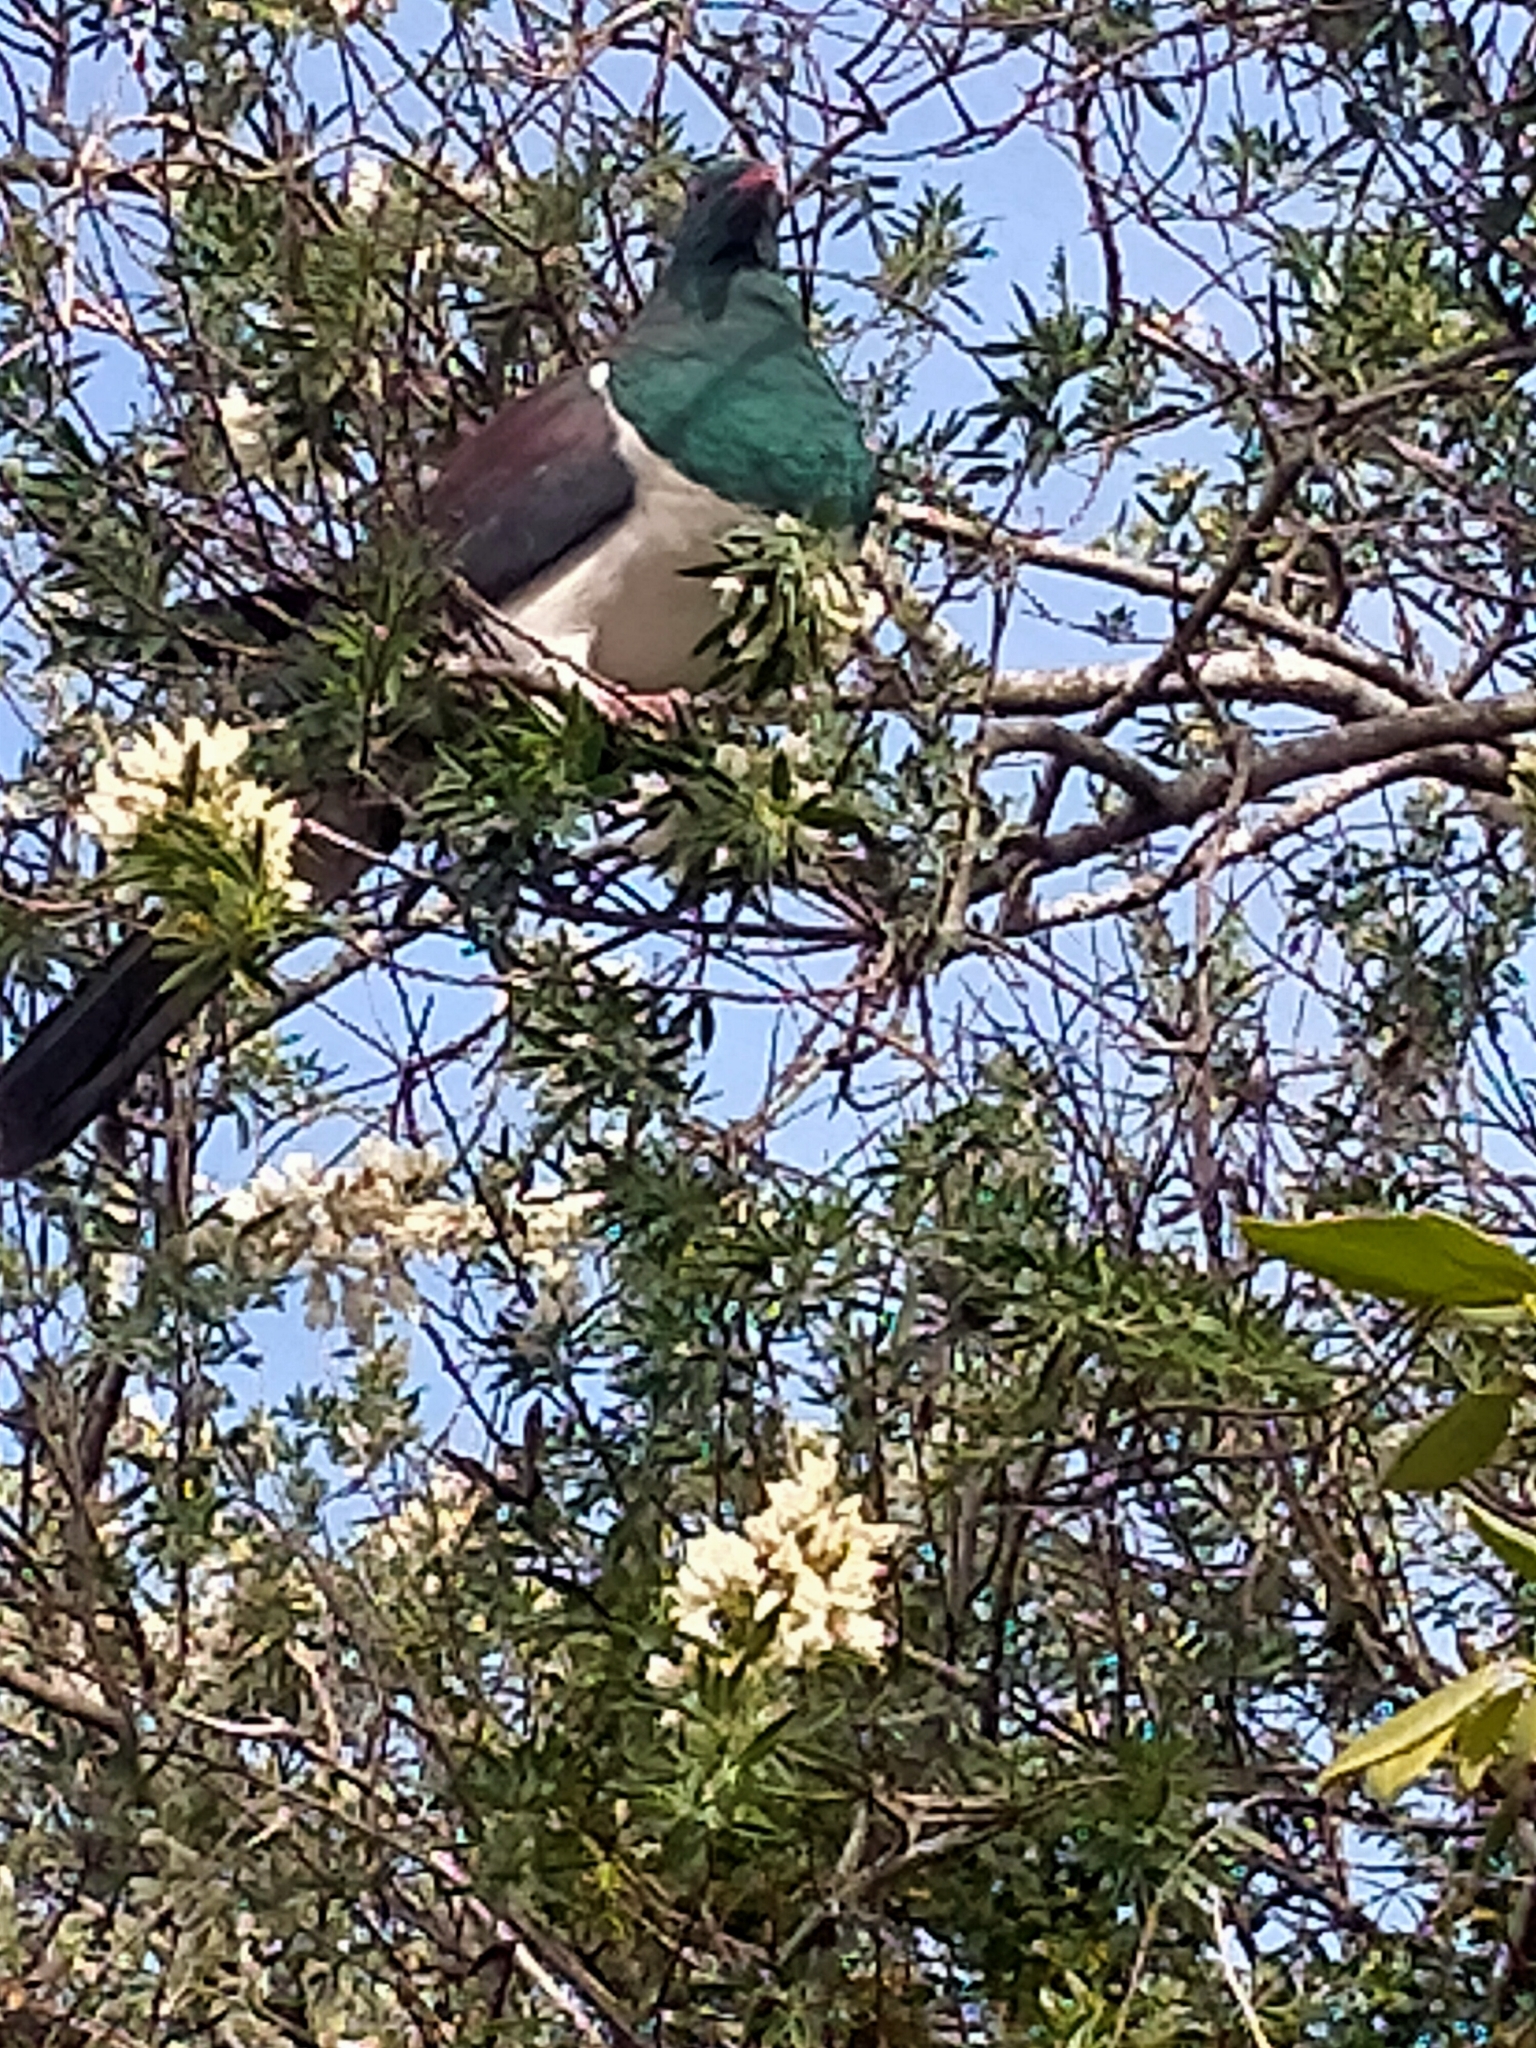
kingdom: Animalia
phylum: Chordata
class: Aves
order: Columbiformes
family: Columbidae
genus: Hemiphaga
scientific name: Hemiphaga novaeseelandiae
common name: New zealand pigeon
